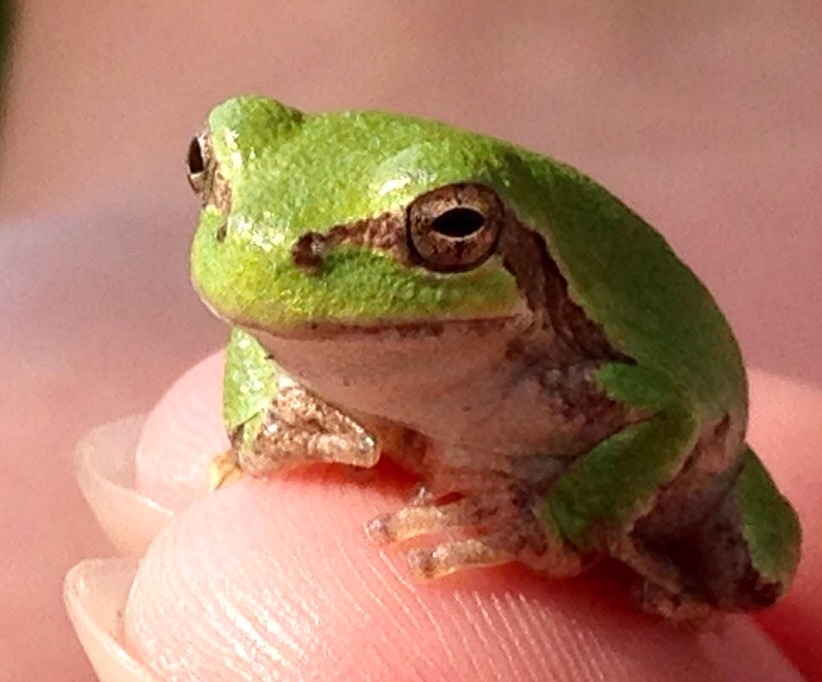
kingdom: Animalia
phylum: Chordata
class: Amphibia
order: Anura
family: Hylidae
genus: Hyla
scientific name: Hyla
